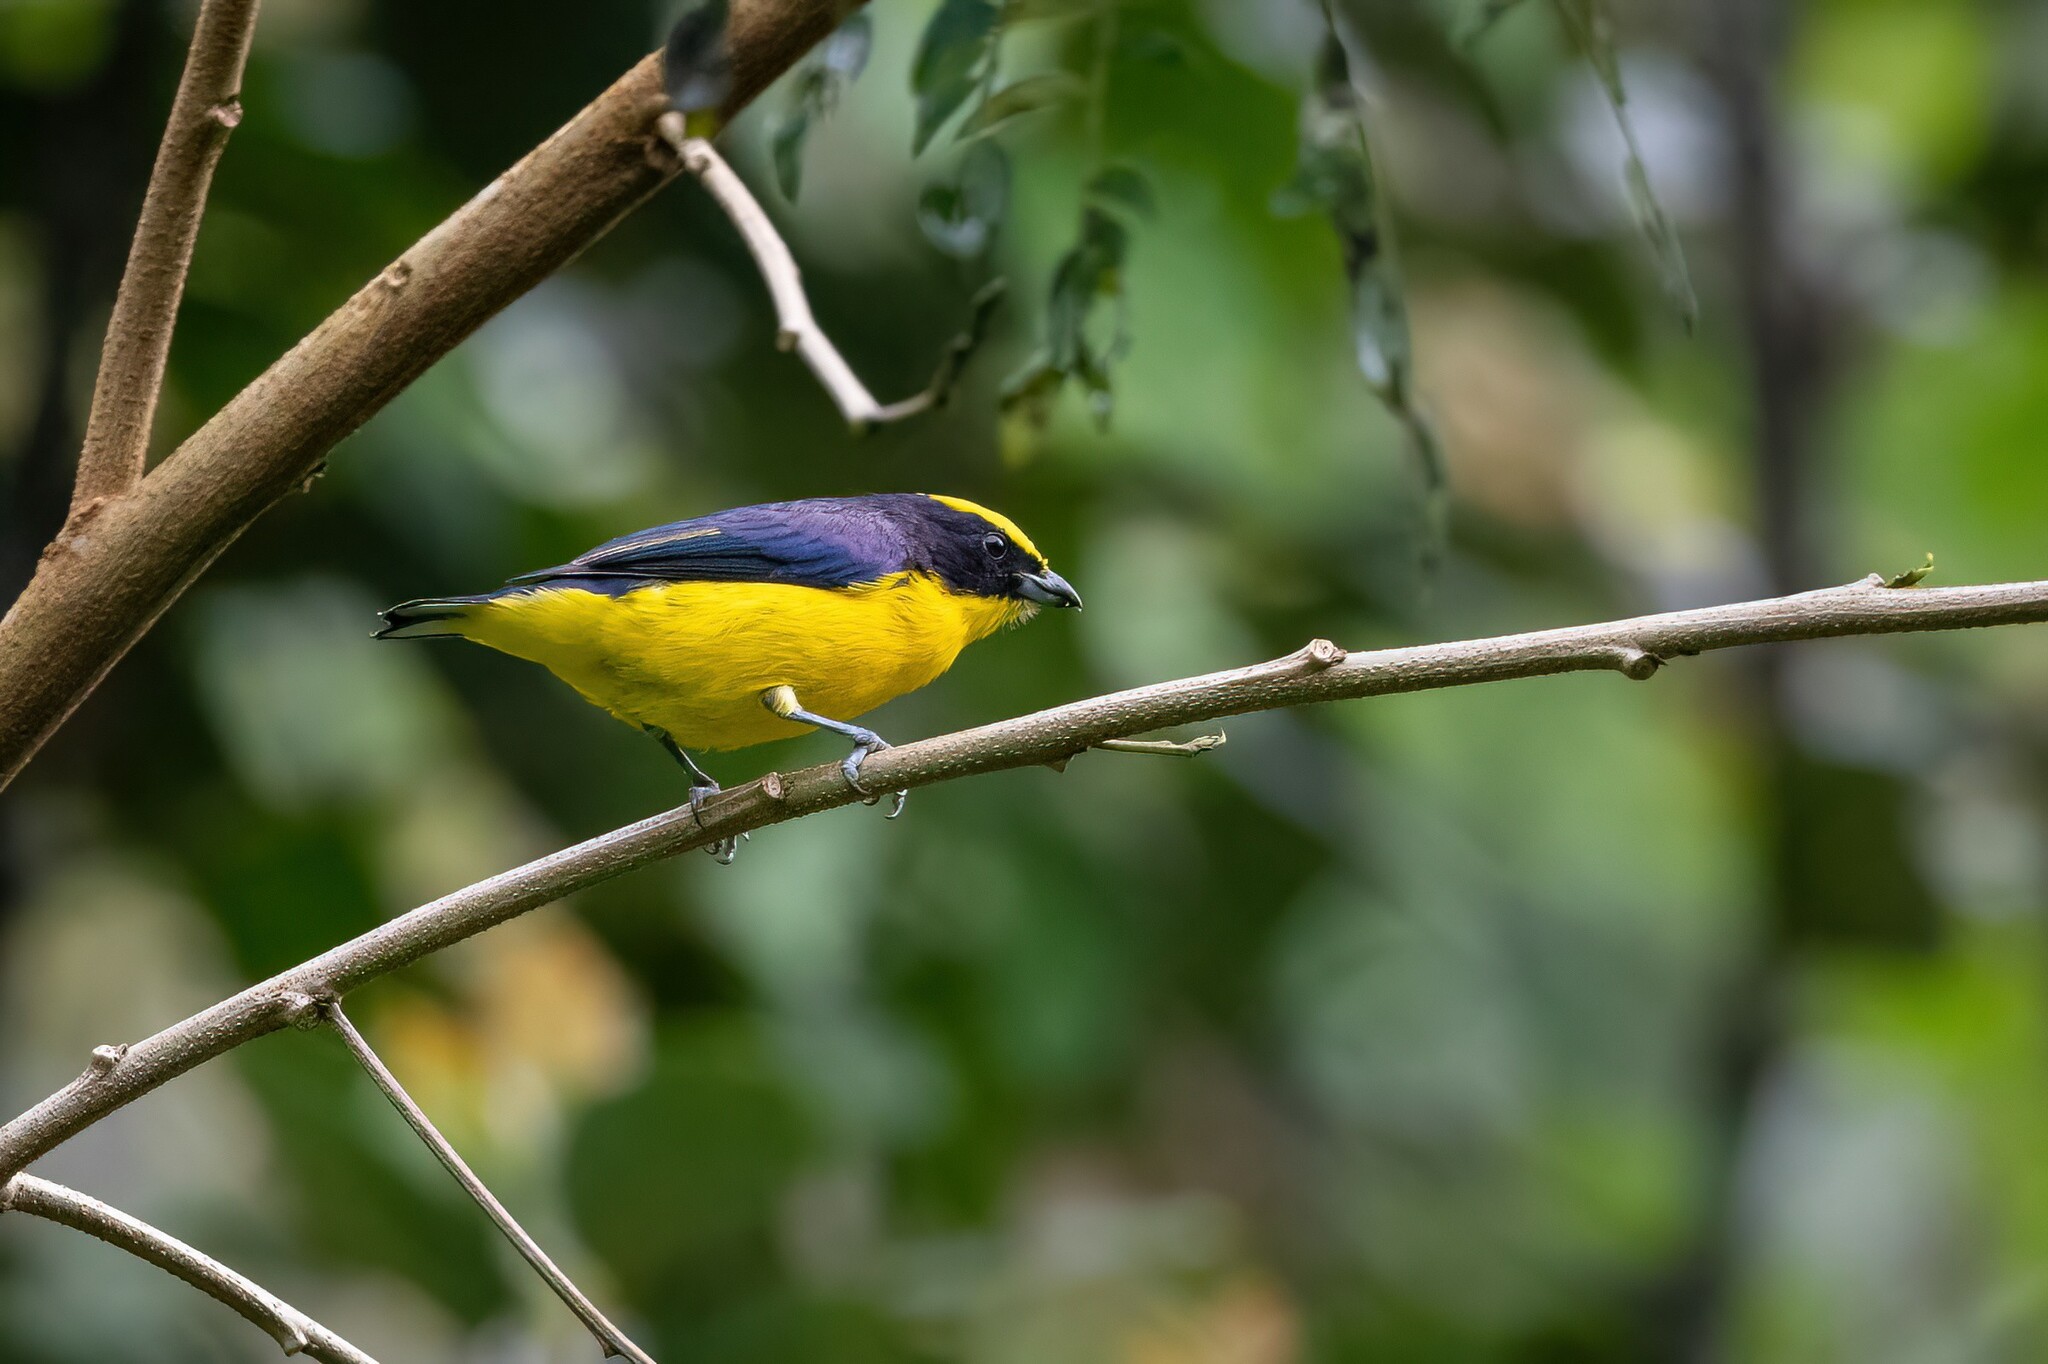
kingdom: Animalia
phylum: Chordata
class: Aves
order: Passeriformes
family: Fringillidae
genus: Euphonia
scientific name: Euphonia laniirostris
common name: Thick-billed euphonia
